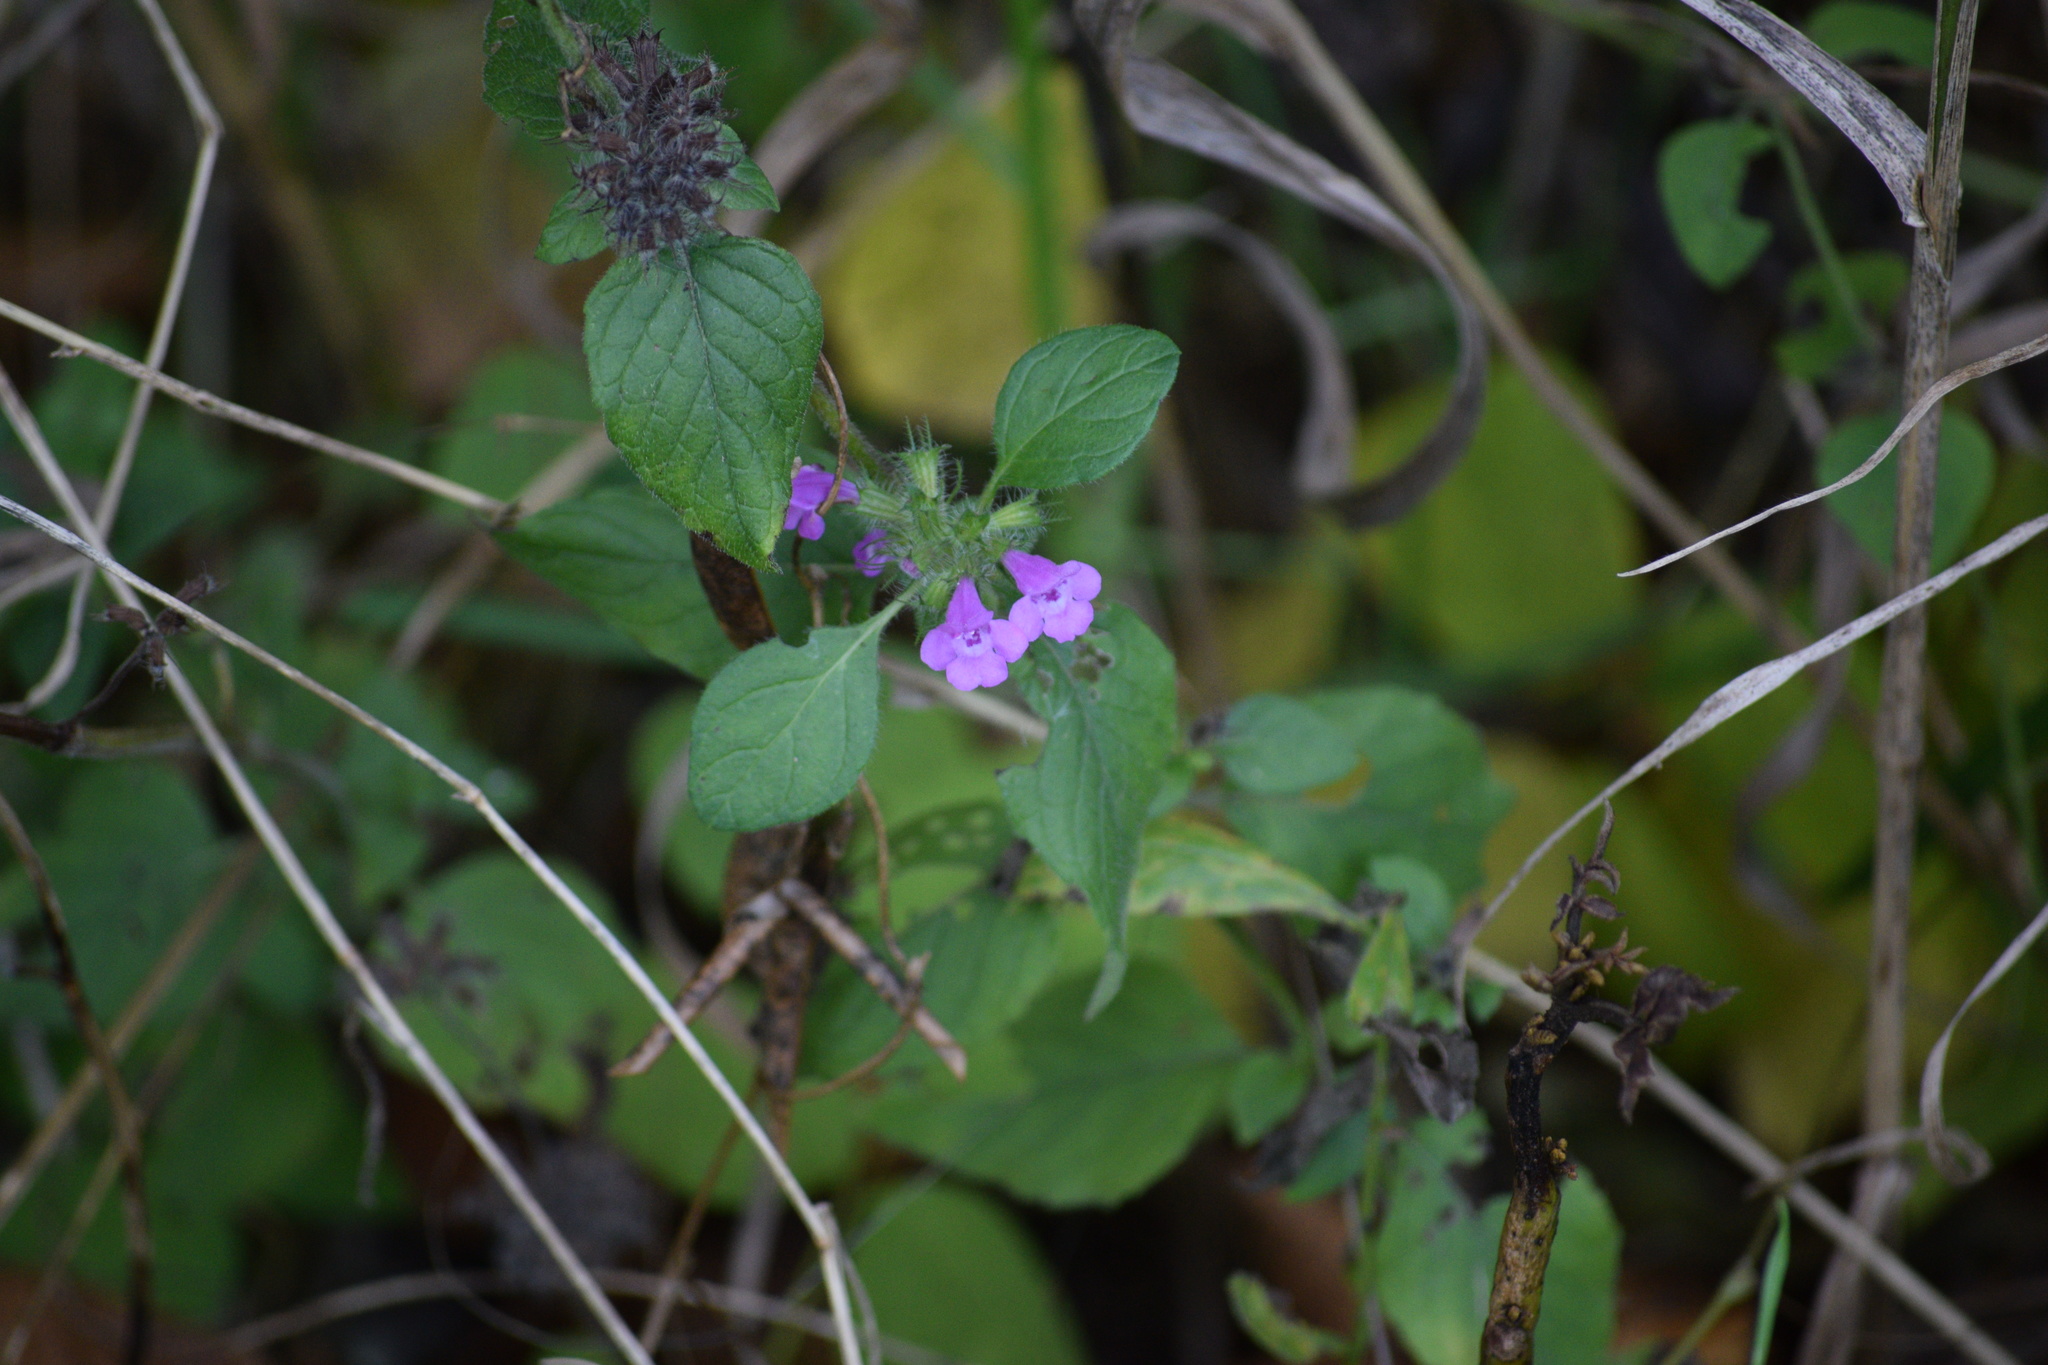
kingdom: Plantae
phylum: Tracheophyta
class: Magnoliopsida
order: Lamiales
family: Lamiaceae
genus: Clinopodium
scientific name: Clinopodium vulgare
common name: Wild basil
